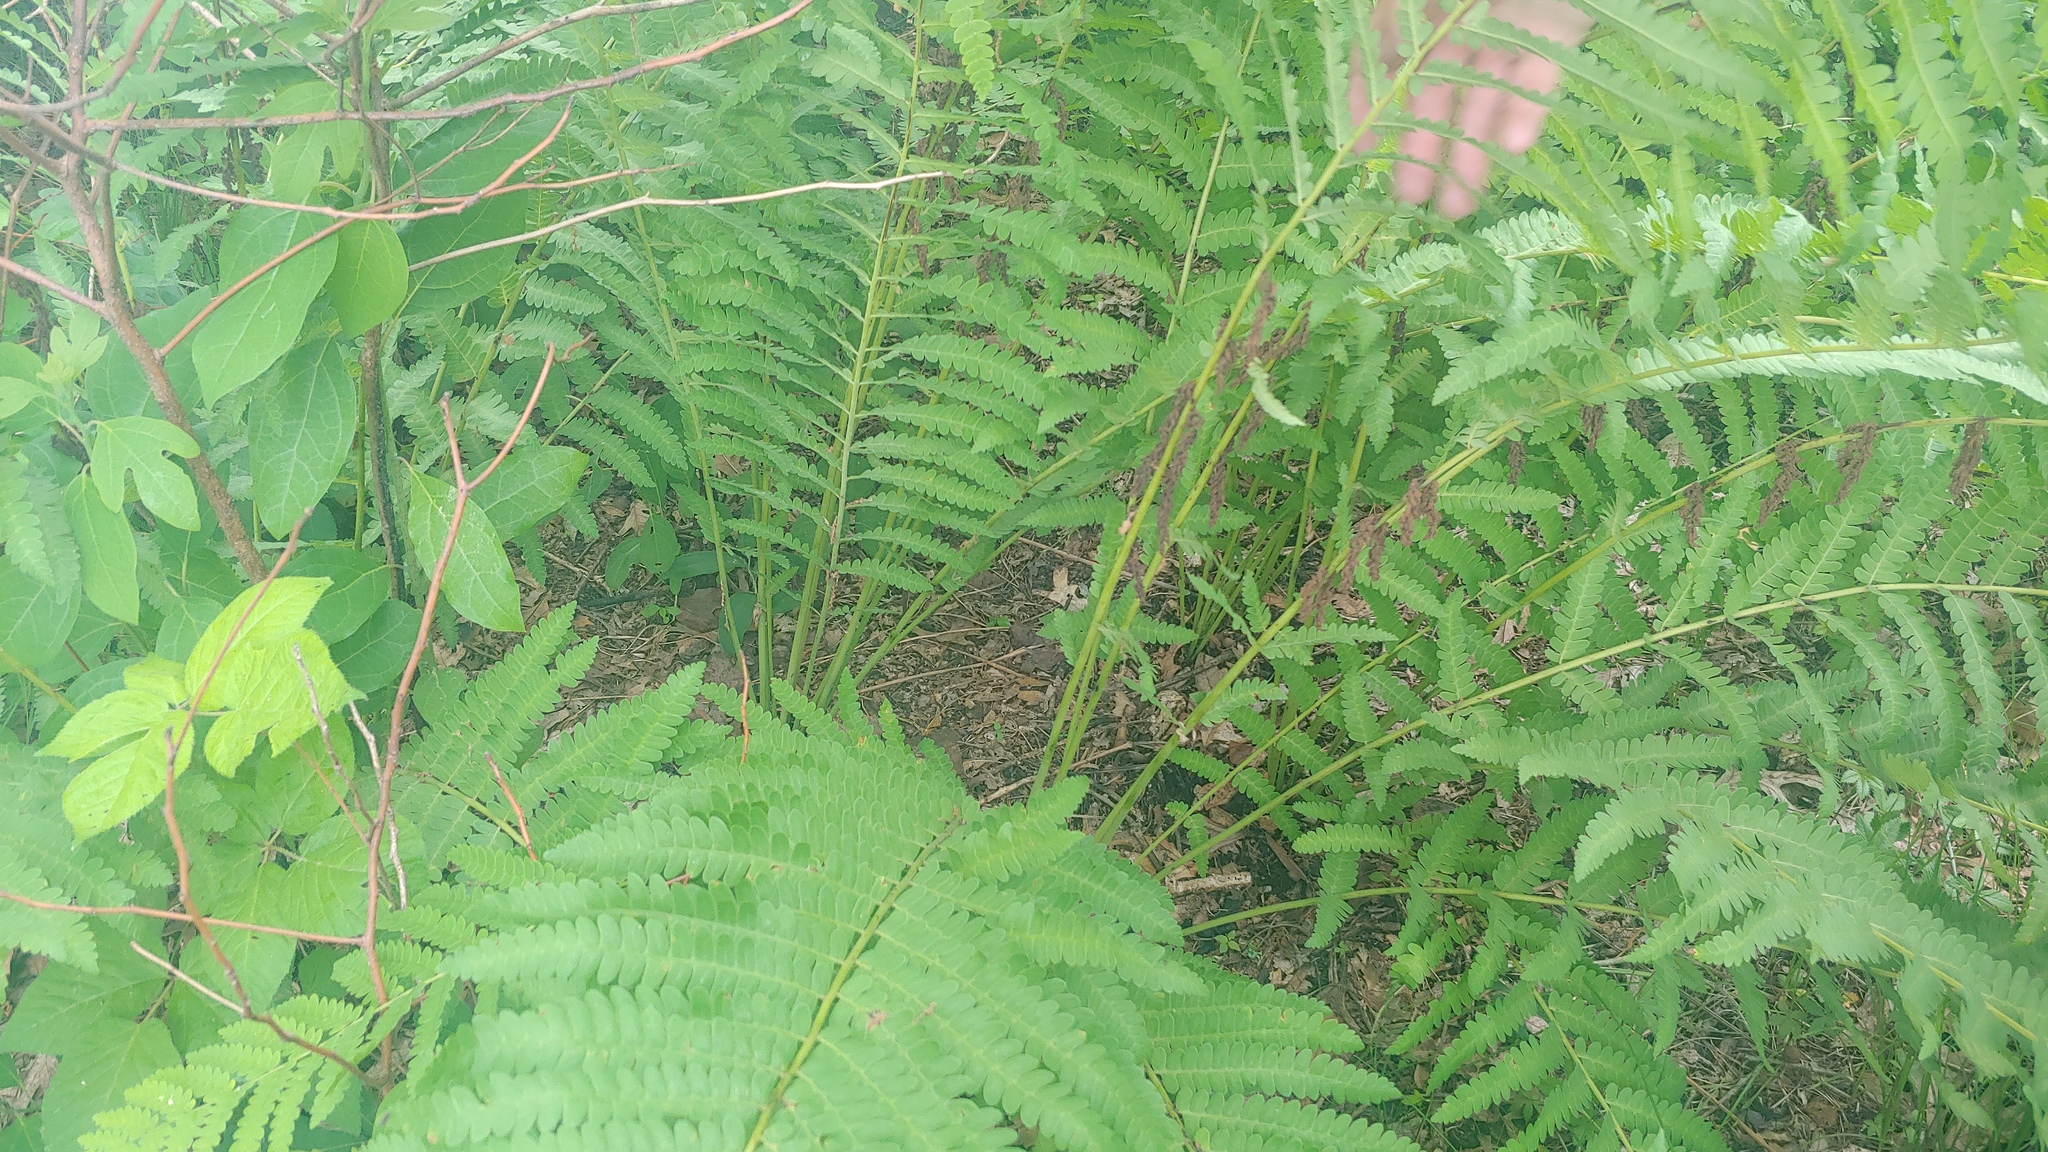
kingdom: Plantae
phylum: Tracheophyta
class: Polypodiopsida
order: Osmundales
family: Osmundaceae
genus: Claytosmunda
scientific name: Claytosmunda claytoniana
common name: Clayton's fern
